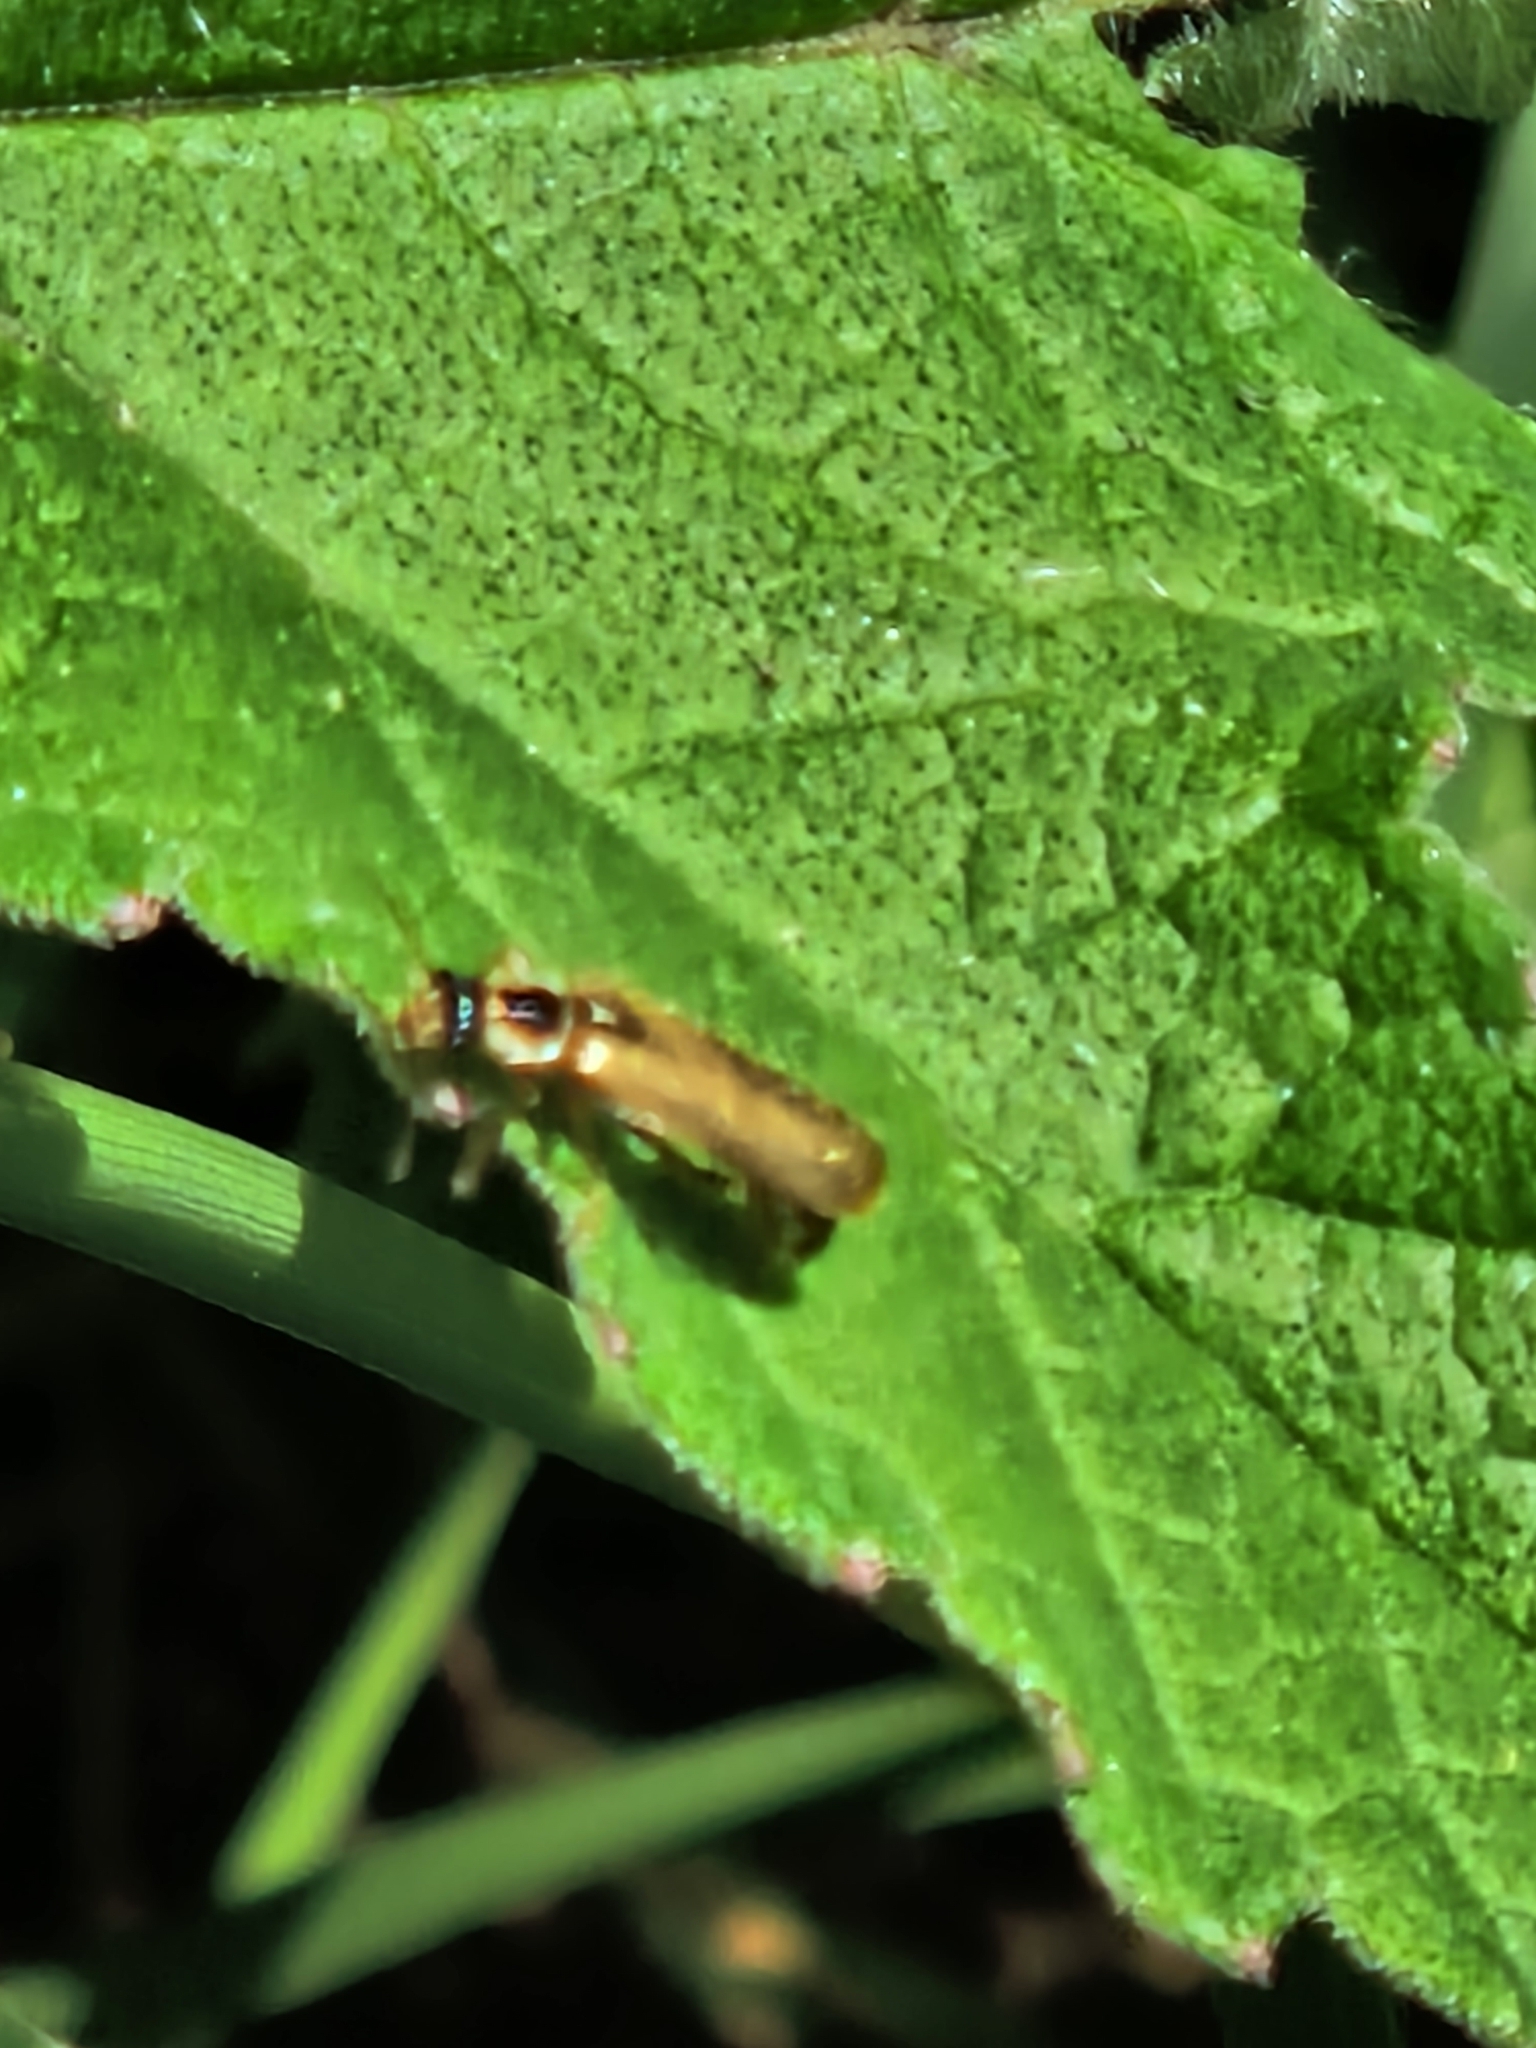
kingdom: Animalia
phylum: Arthropoda
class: Insecta
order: Coleoptera
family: Cantharidae
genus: Cantharis
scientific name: Cantharis decipiens
